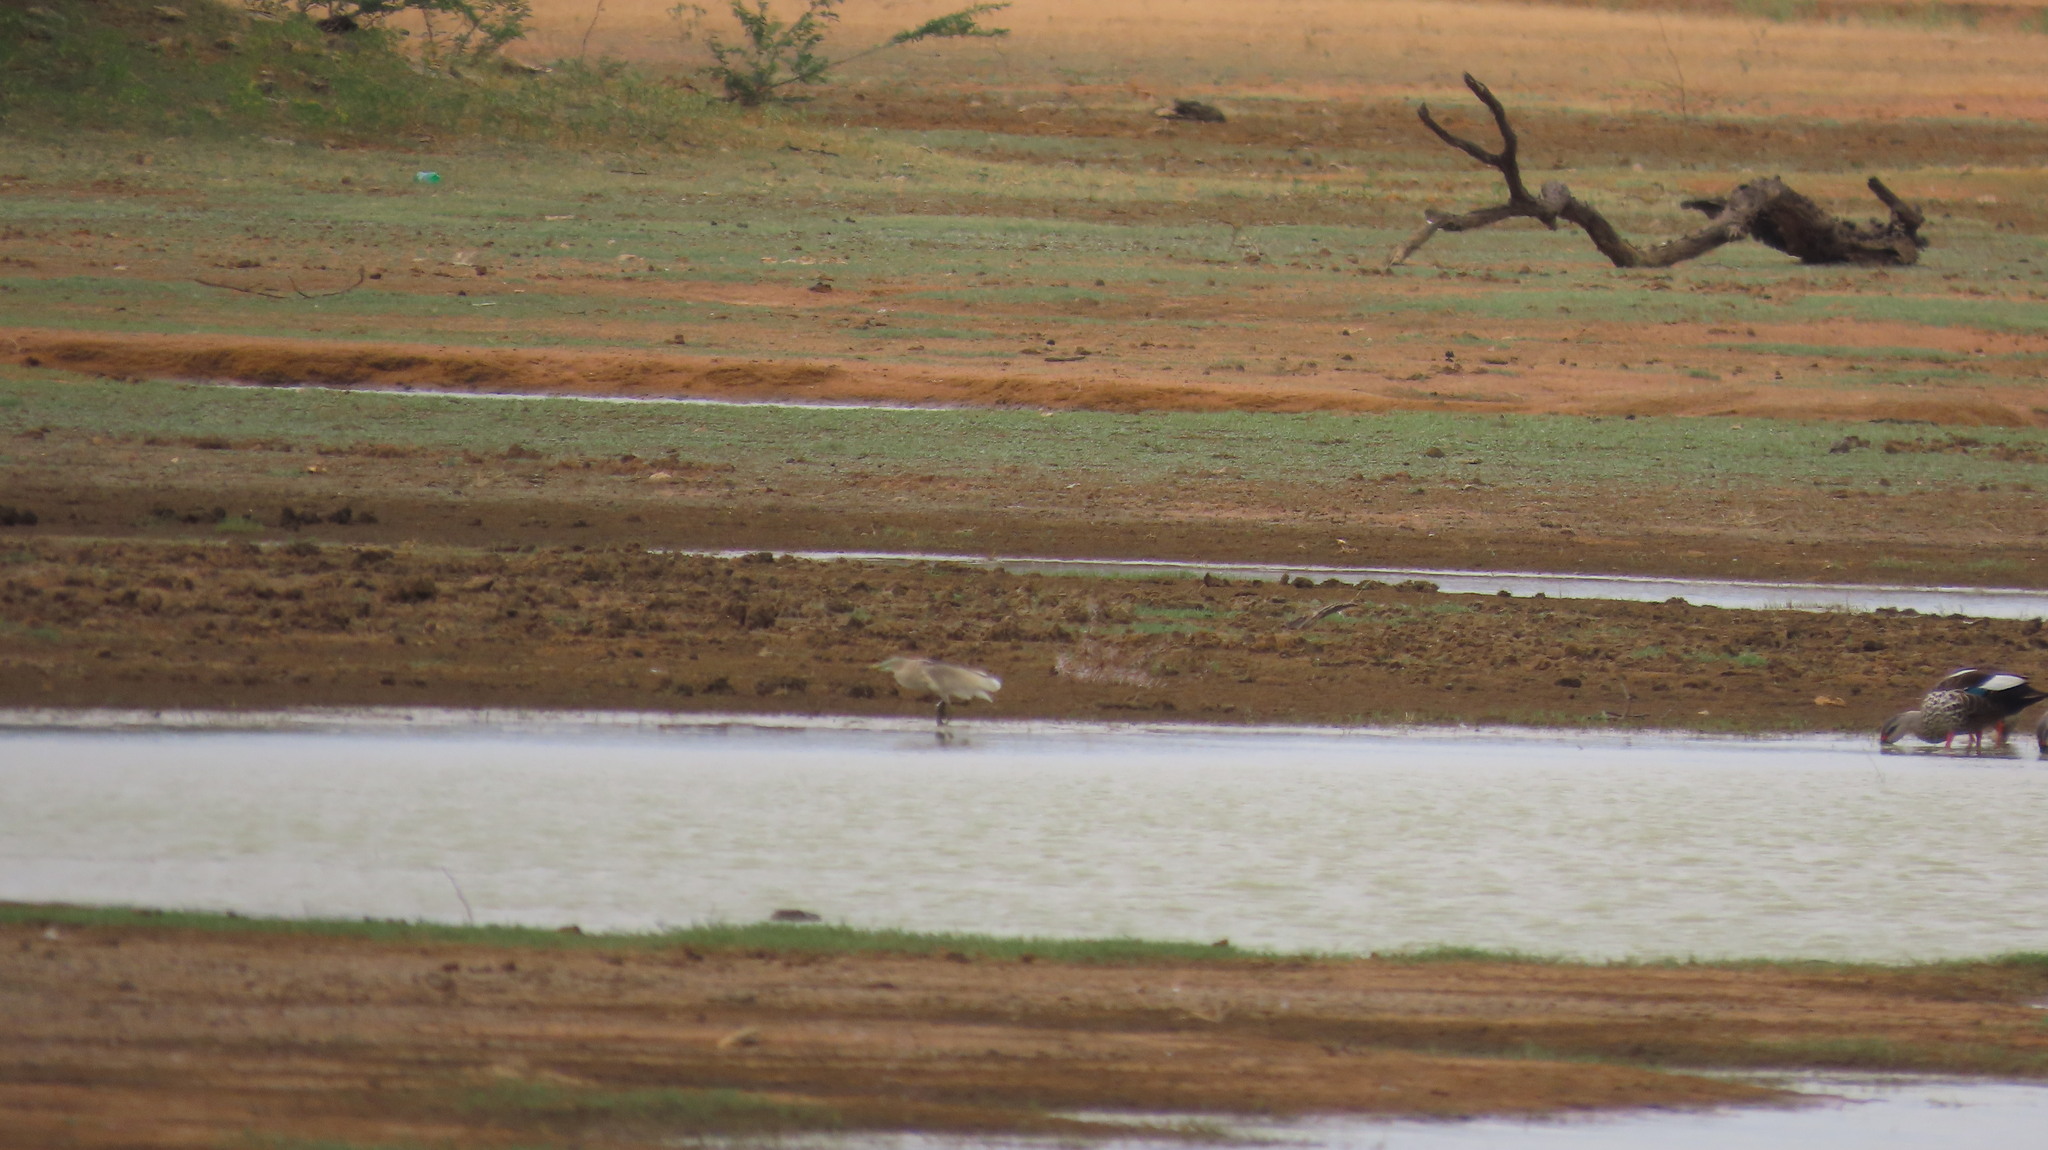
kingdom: Animalia
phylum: Chordata
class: Aves
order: Pelecaniformes
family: Ardeidae
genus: Ardeola
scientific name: Ardeola grayii
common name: Indian pond heron
